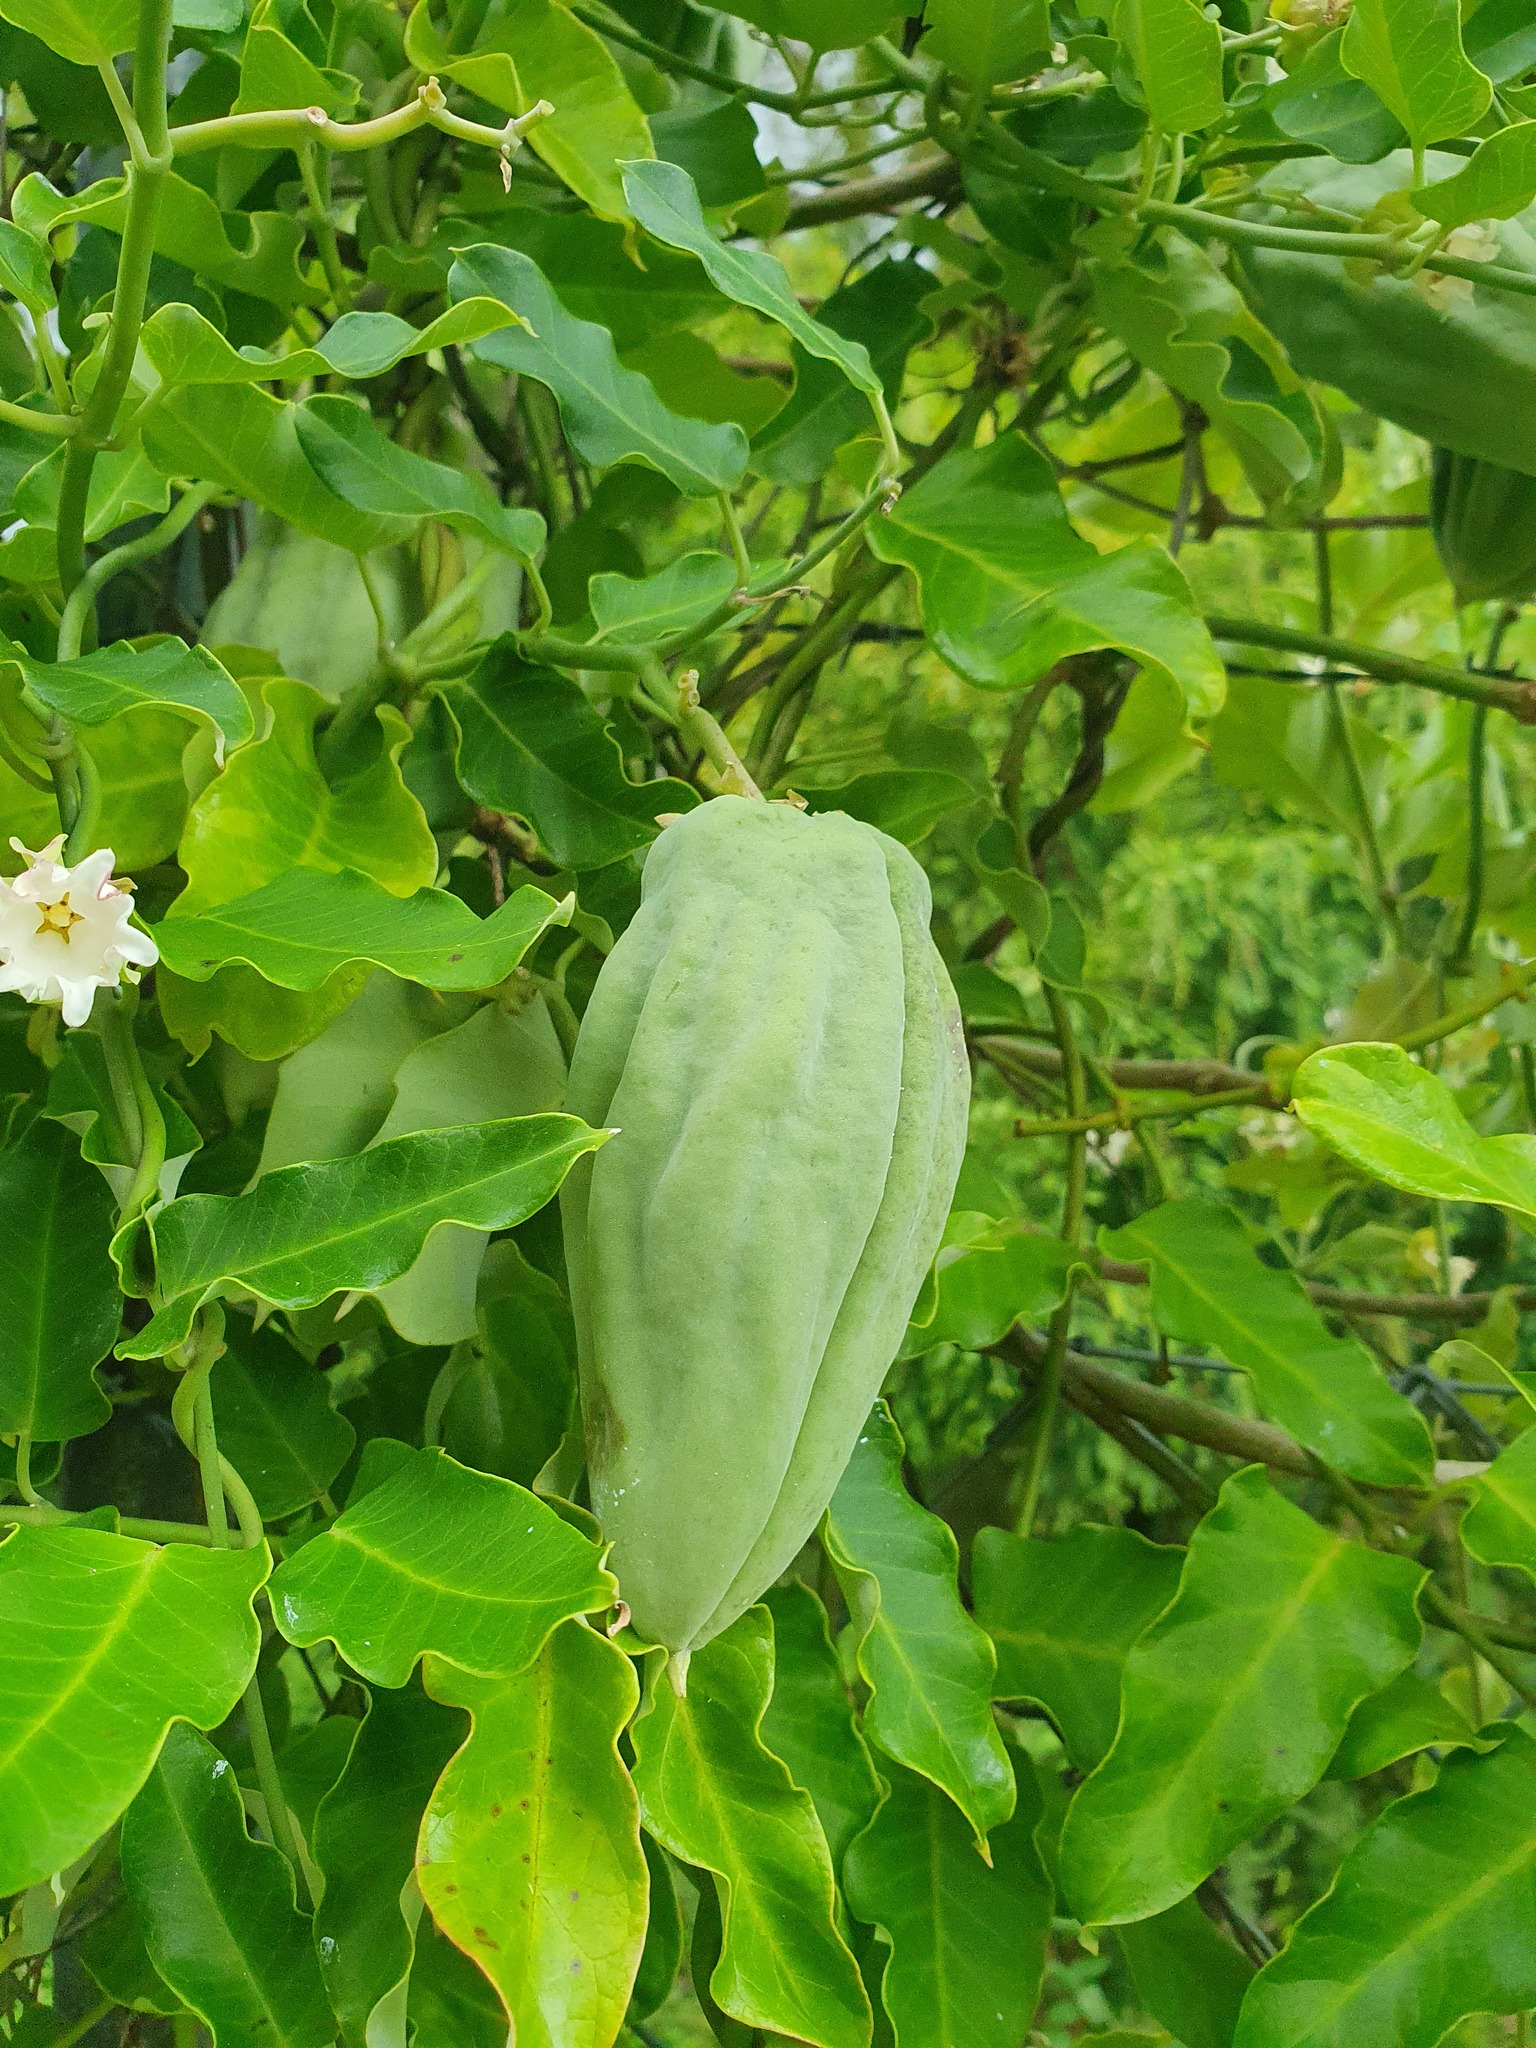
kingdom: Plantae
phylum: Tracheophyta
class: Magnoliopsida
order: Gentianales
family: Apocynaceae
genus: Araujia
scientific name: Araujia sericifera
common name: White bladderflower
